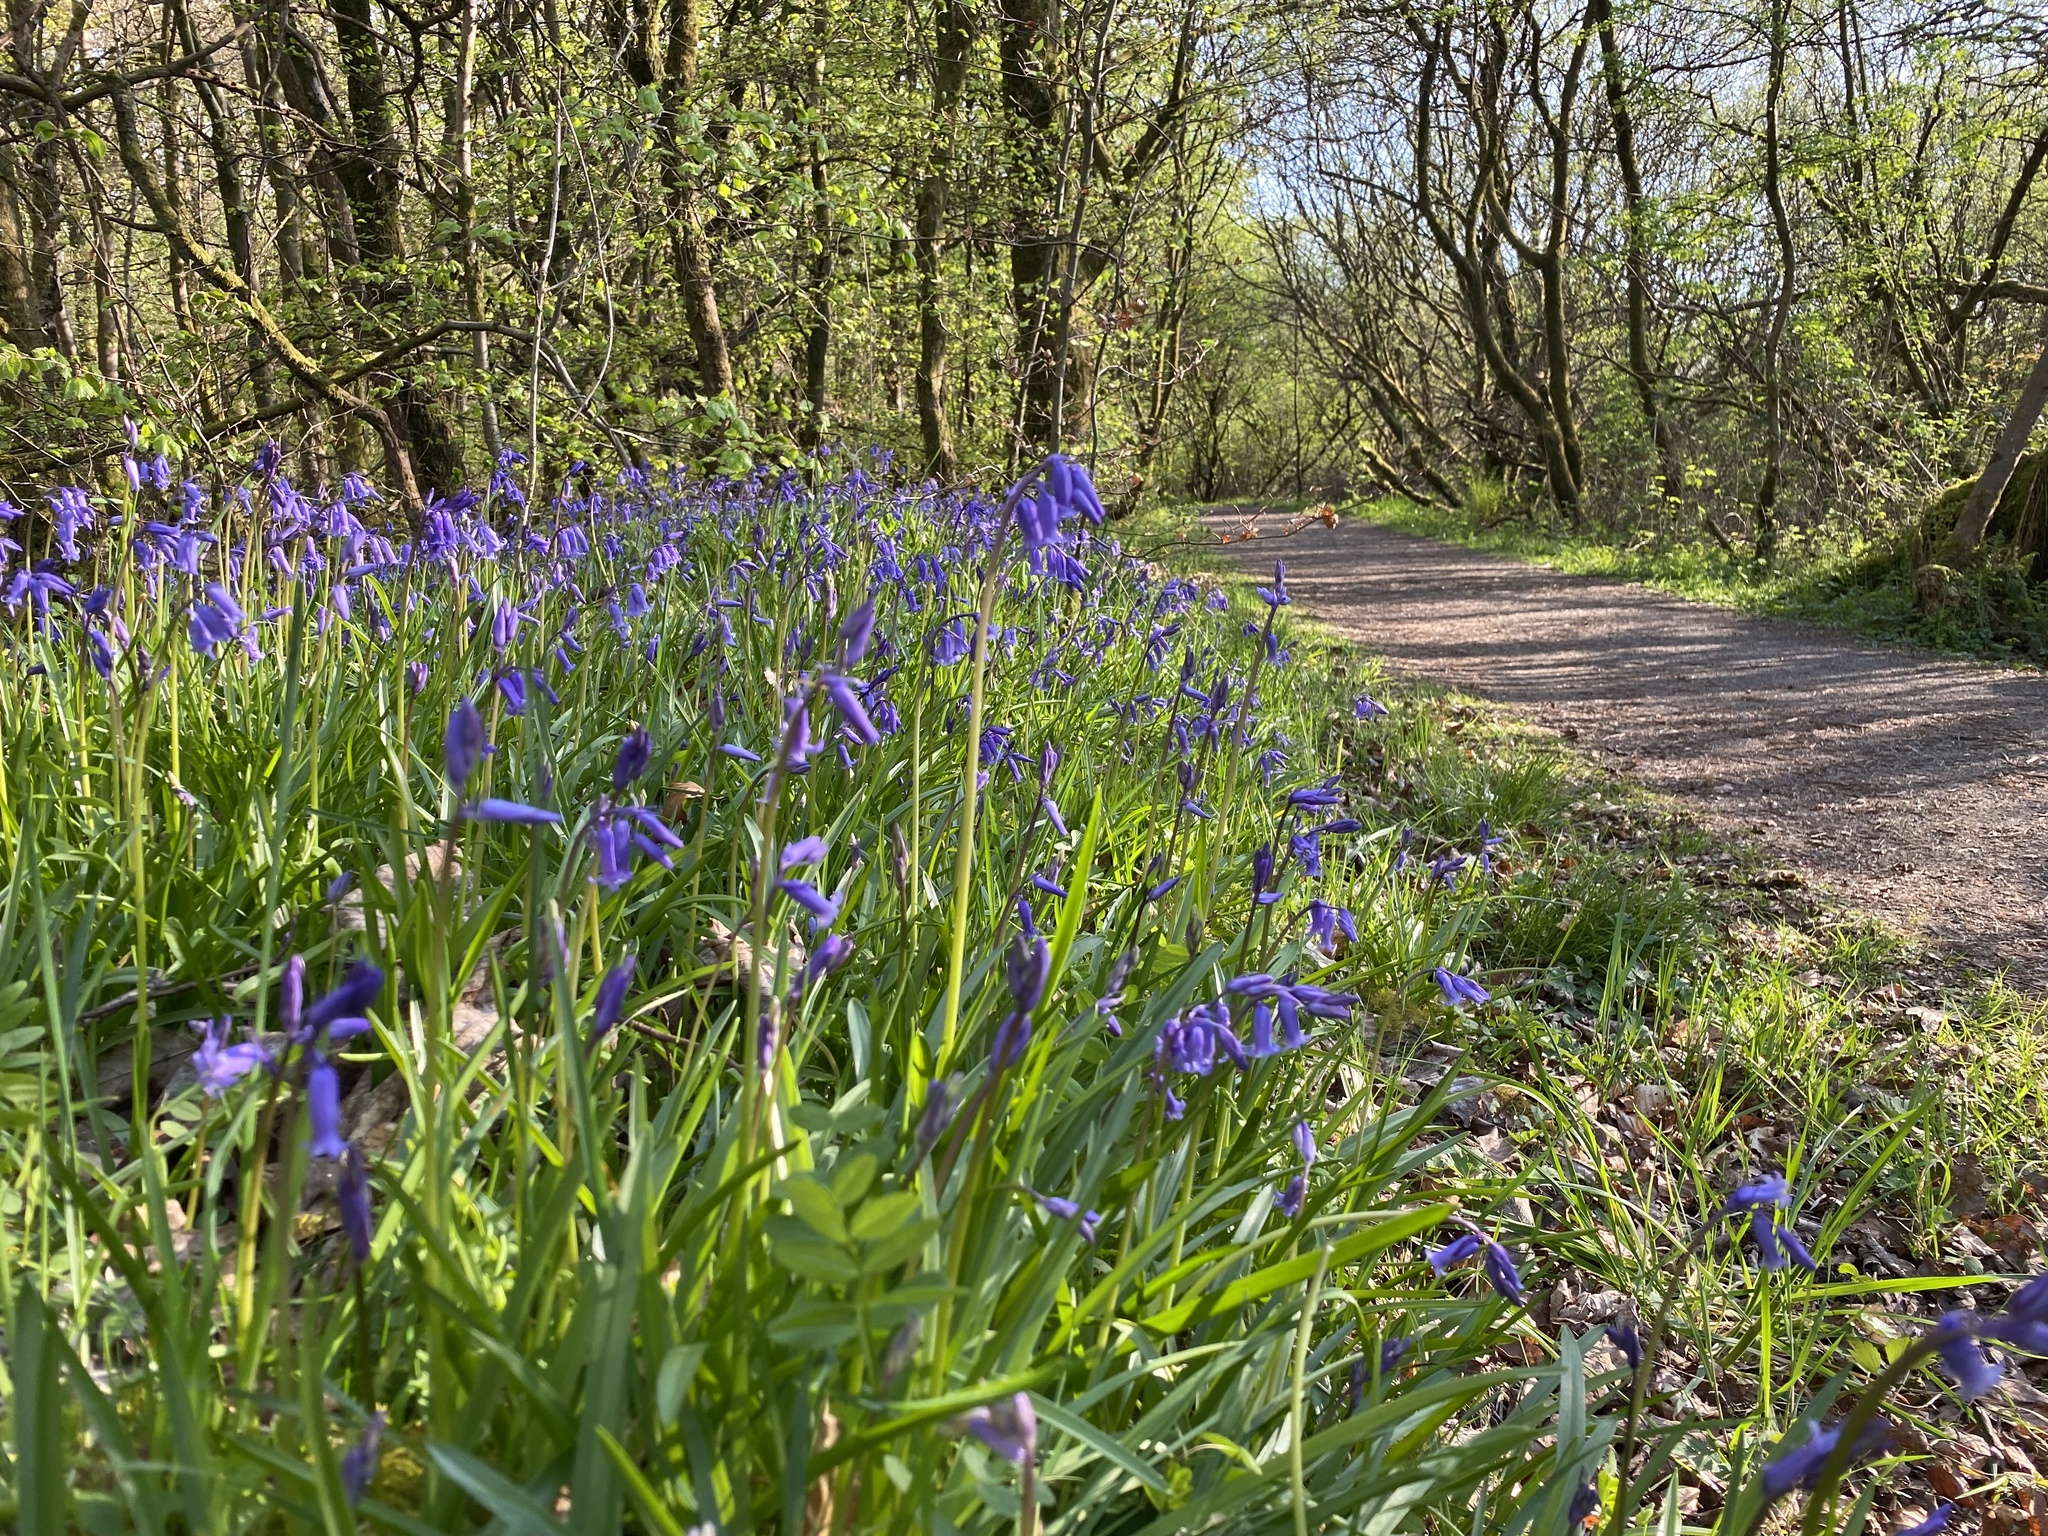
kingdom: Plantae
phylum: Tracheophyta
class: Liliopsida
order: Asparagales
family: Asparagaceae
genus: Hyacinthoides
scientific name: Hyacinthoides non-scripta
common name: Bluebell
